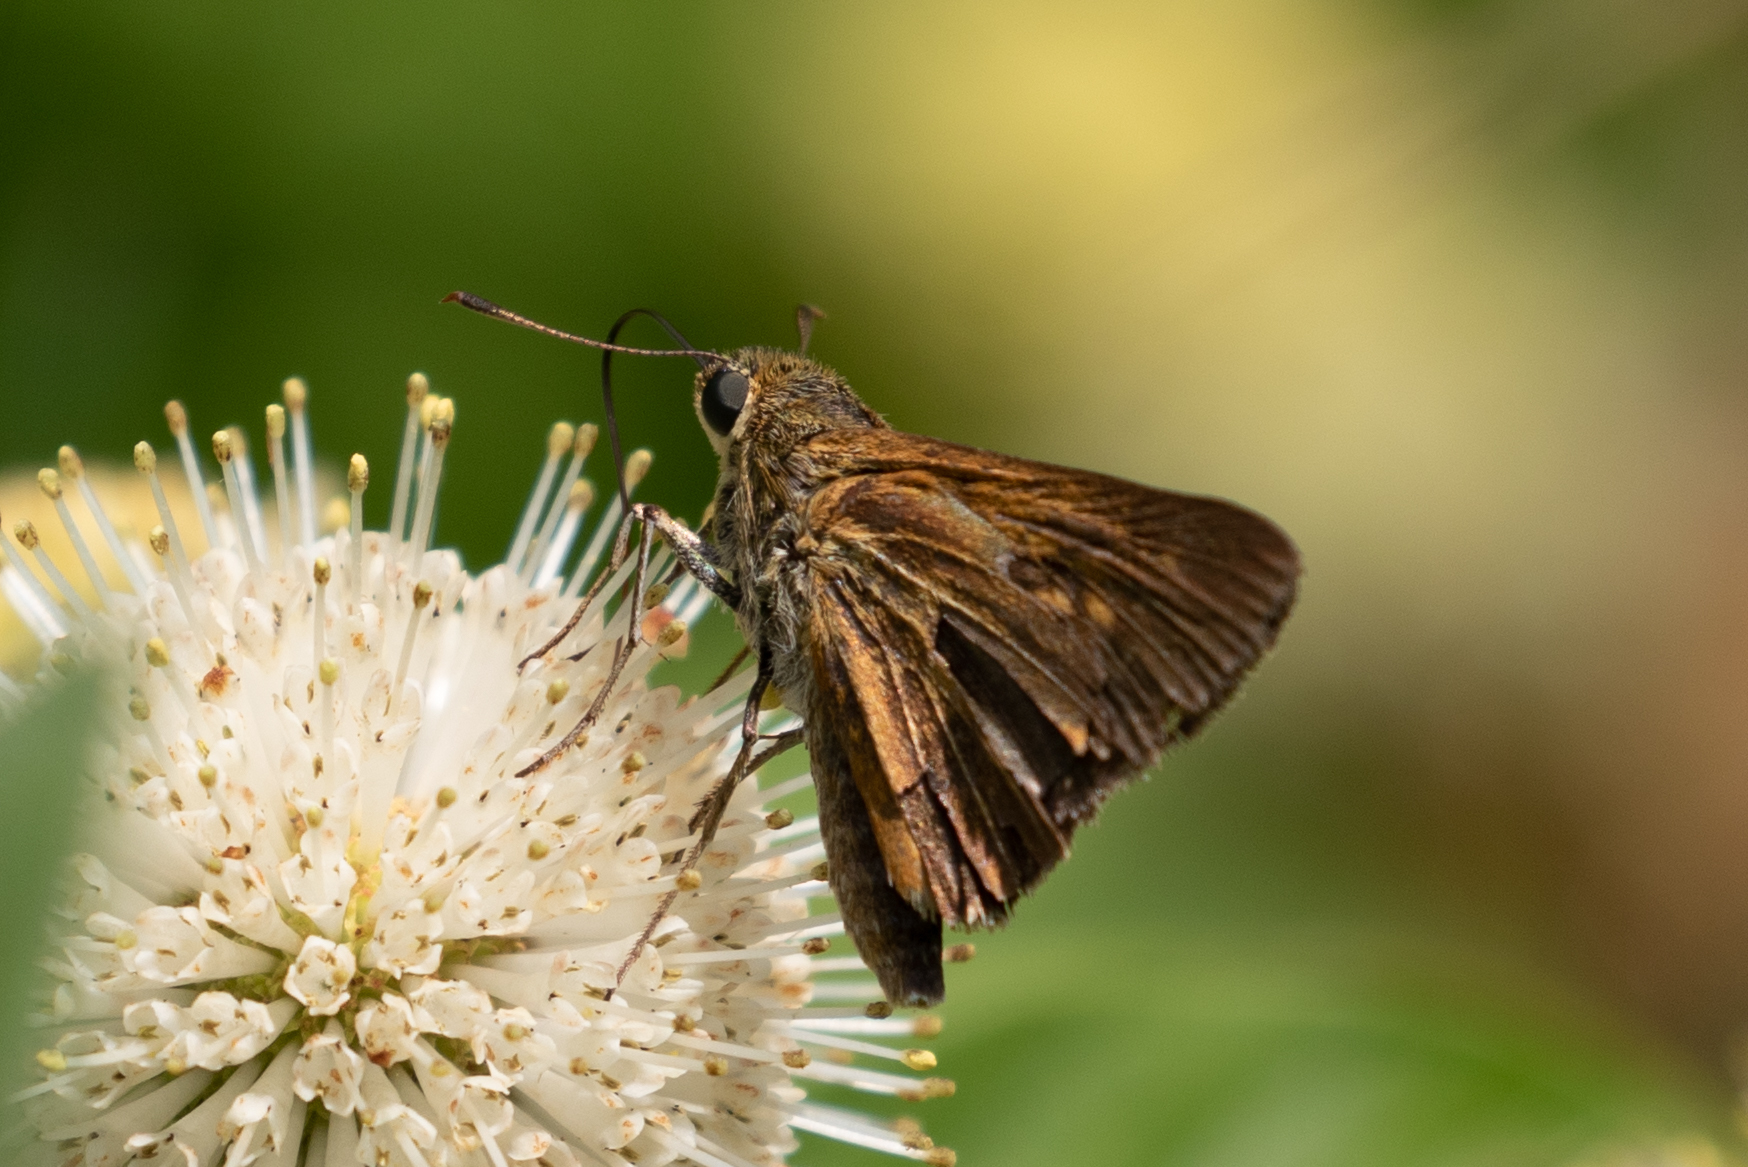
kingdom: Animalia
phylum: Arthropoda
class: Insecta
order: Lepidoptera
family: Hesperiidae
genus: Euphyes
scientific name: Euphyes dion
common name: Dion skipper
